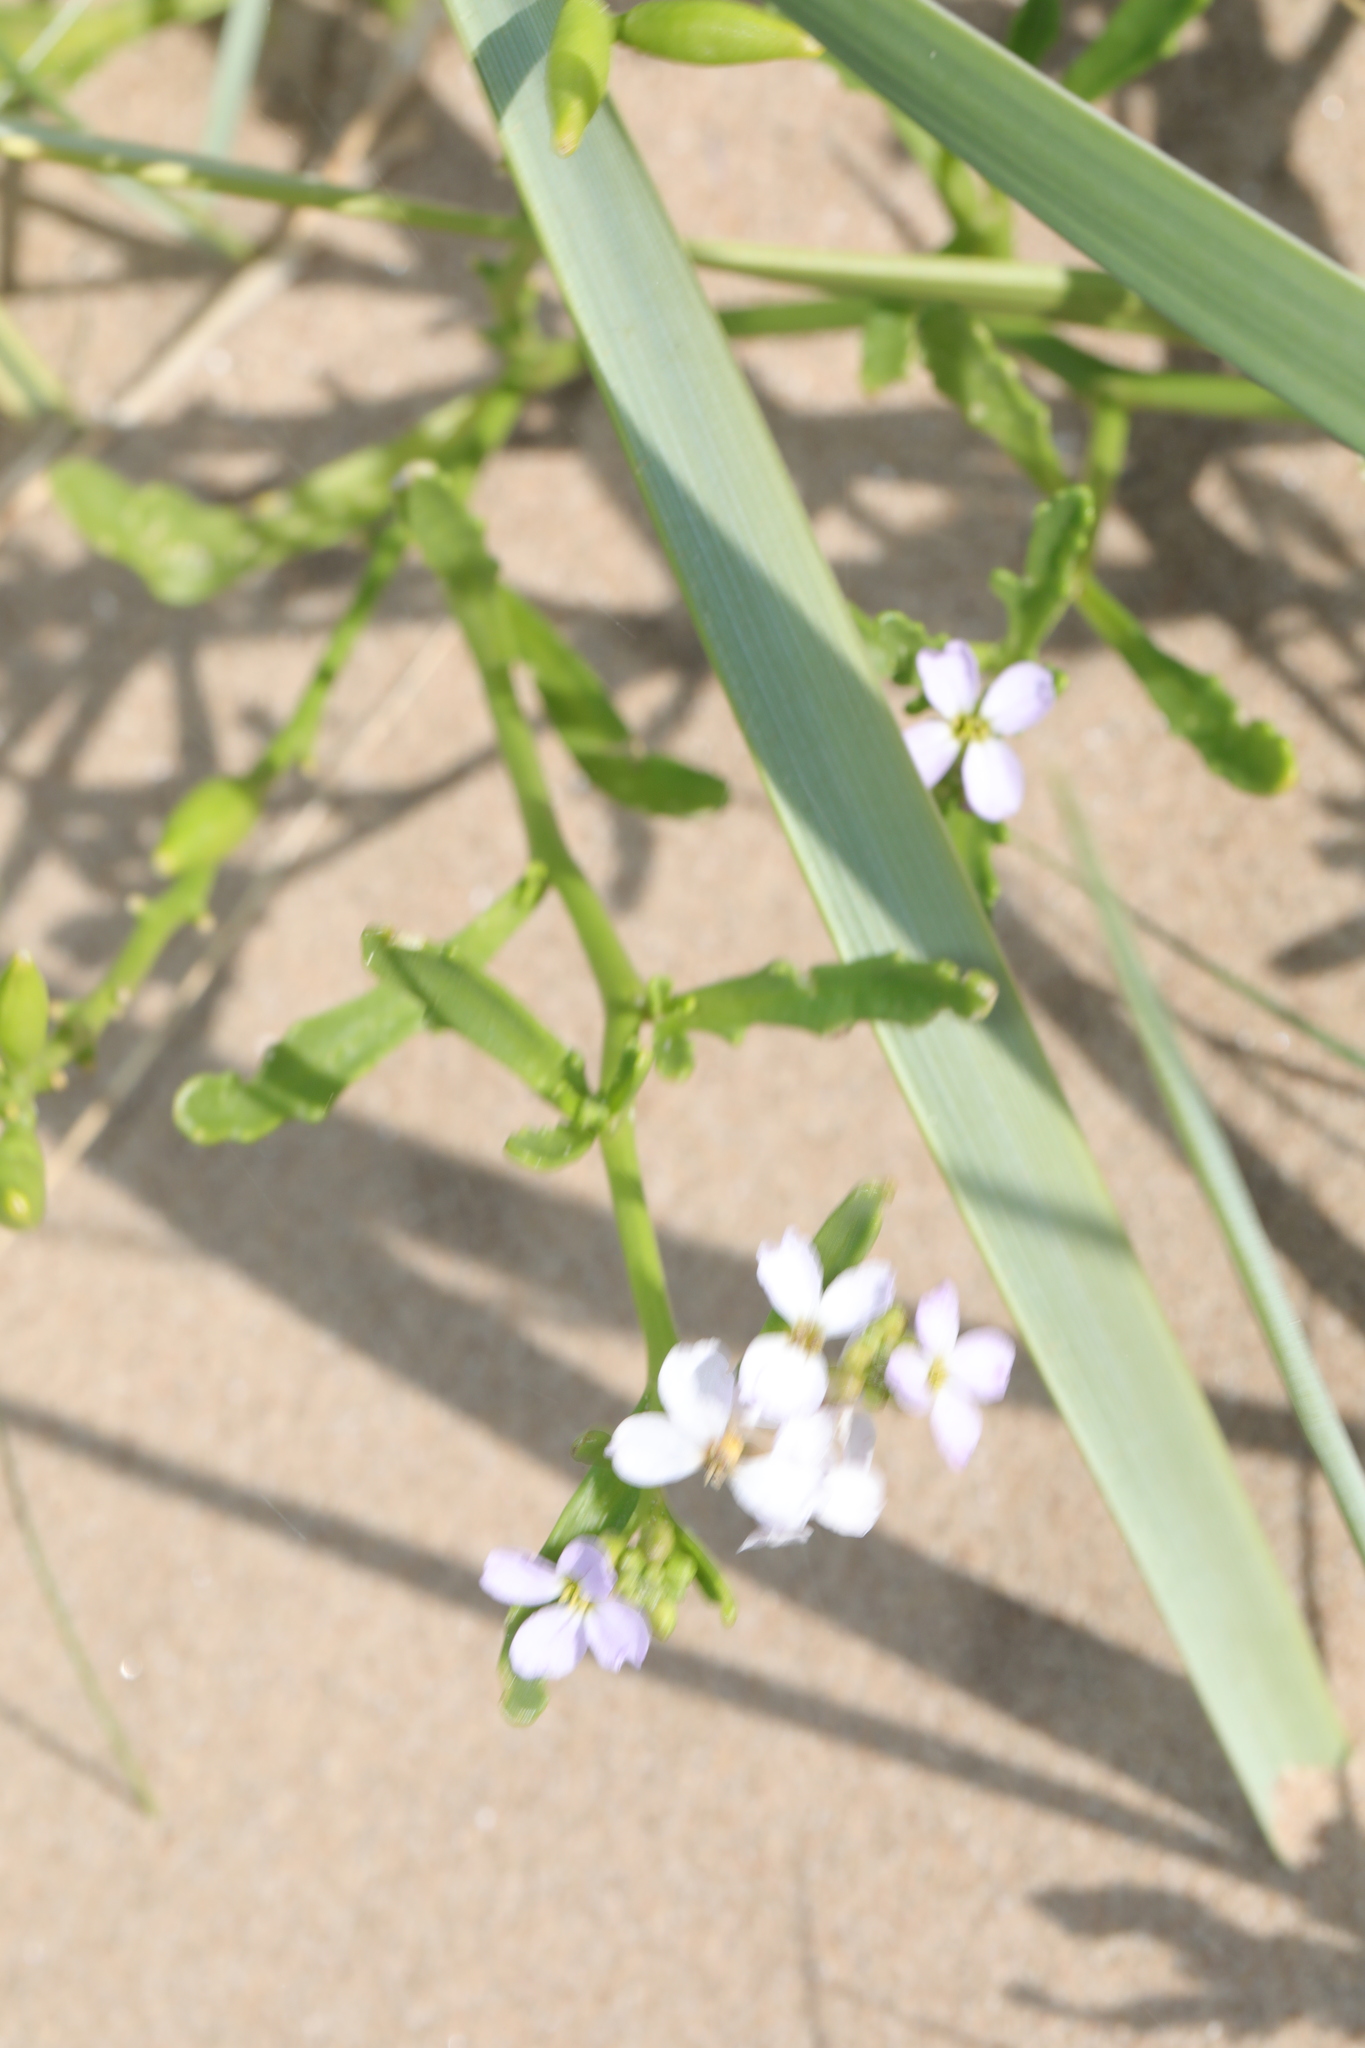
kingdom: Plantae
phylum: Tracheophyta
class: Magnoliopsida
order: Brassicales
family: Brassicaceae
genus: Cakile
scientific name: Cakile maritima
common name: Sea rocket
